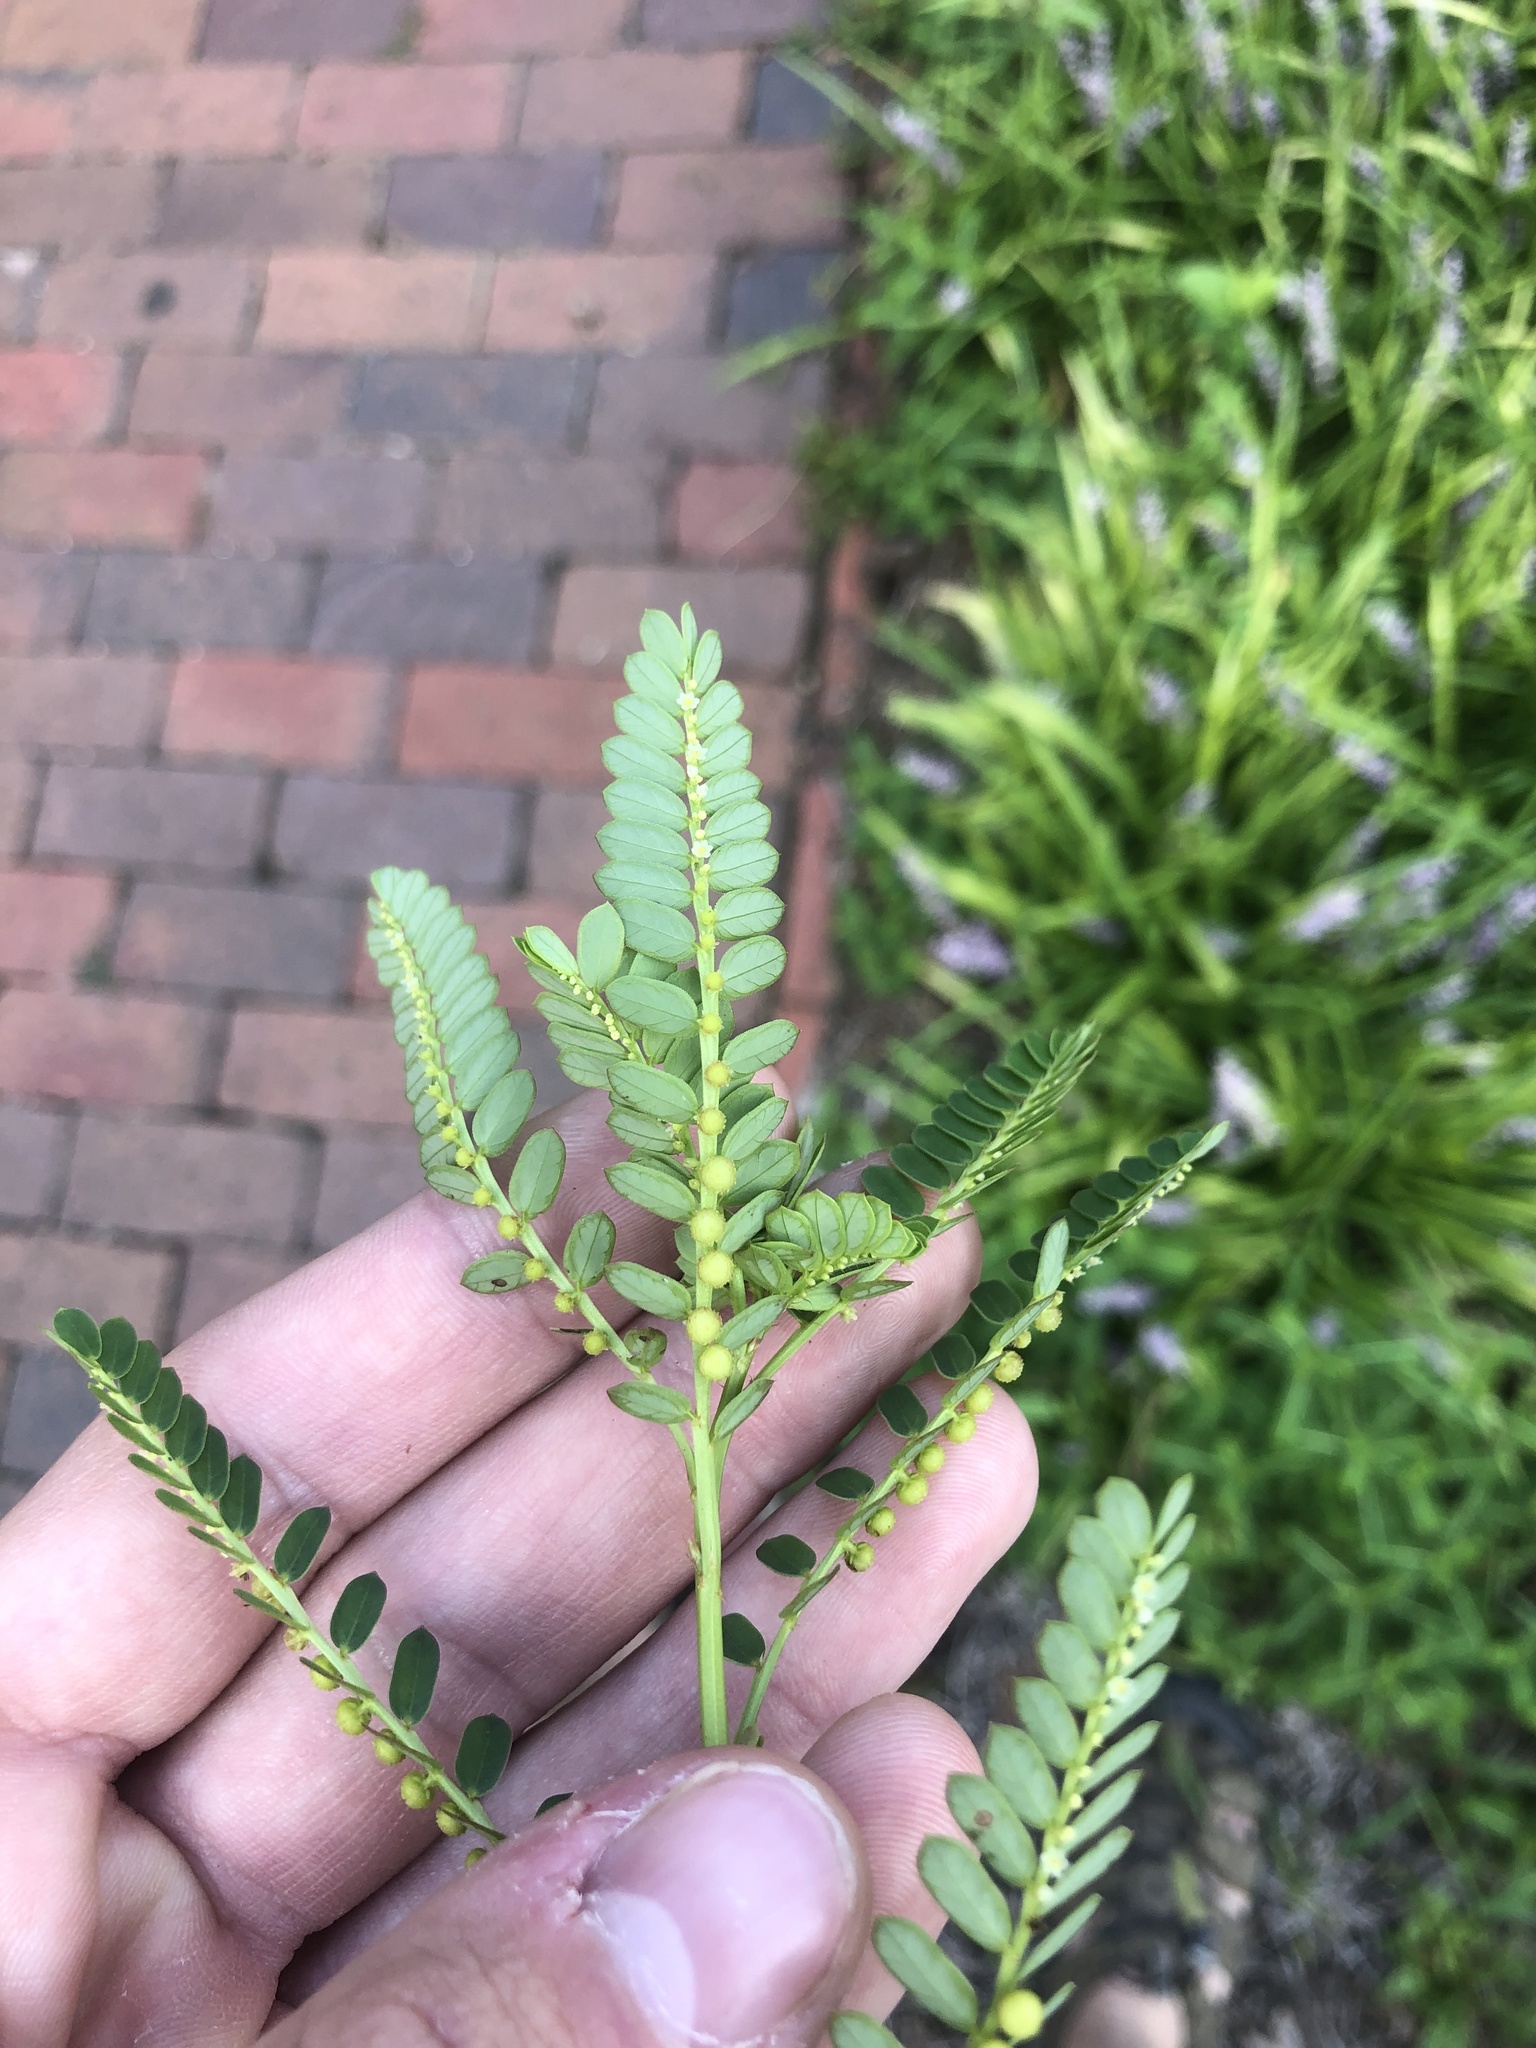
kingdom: Plantae
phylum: Tracheophyta
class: Magnoliopsida
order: Malpighiales
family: Phyllanthaceae
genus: Phyllanthus
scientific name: Phyllanthus urinaria
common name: Chamber bitter
